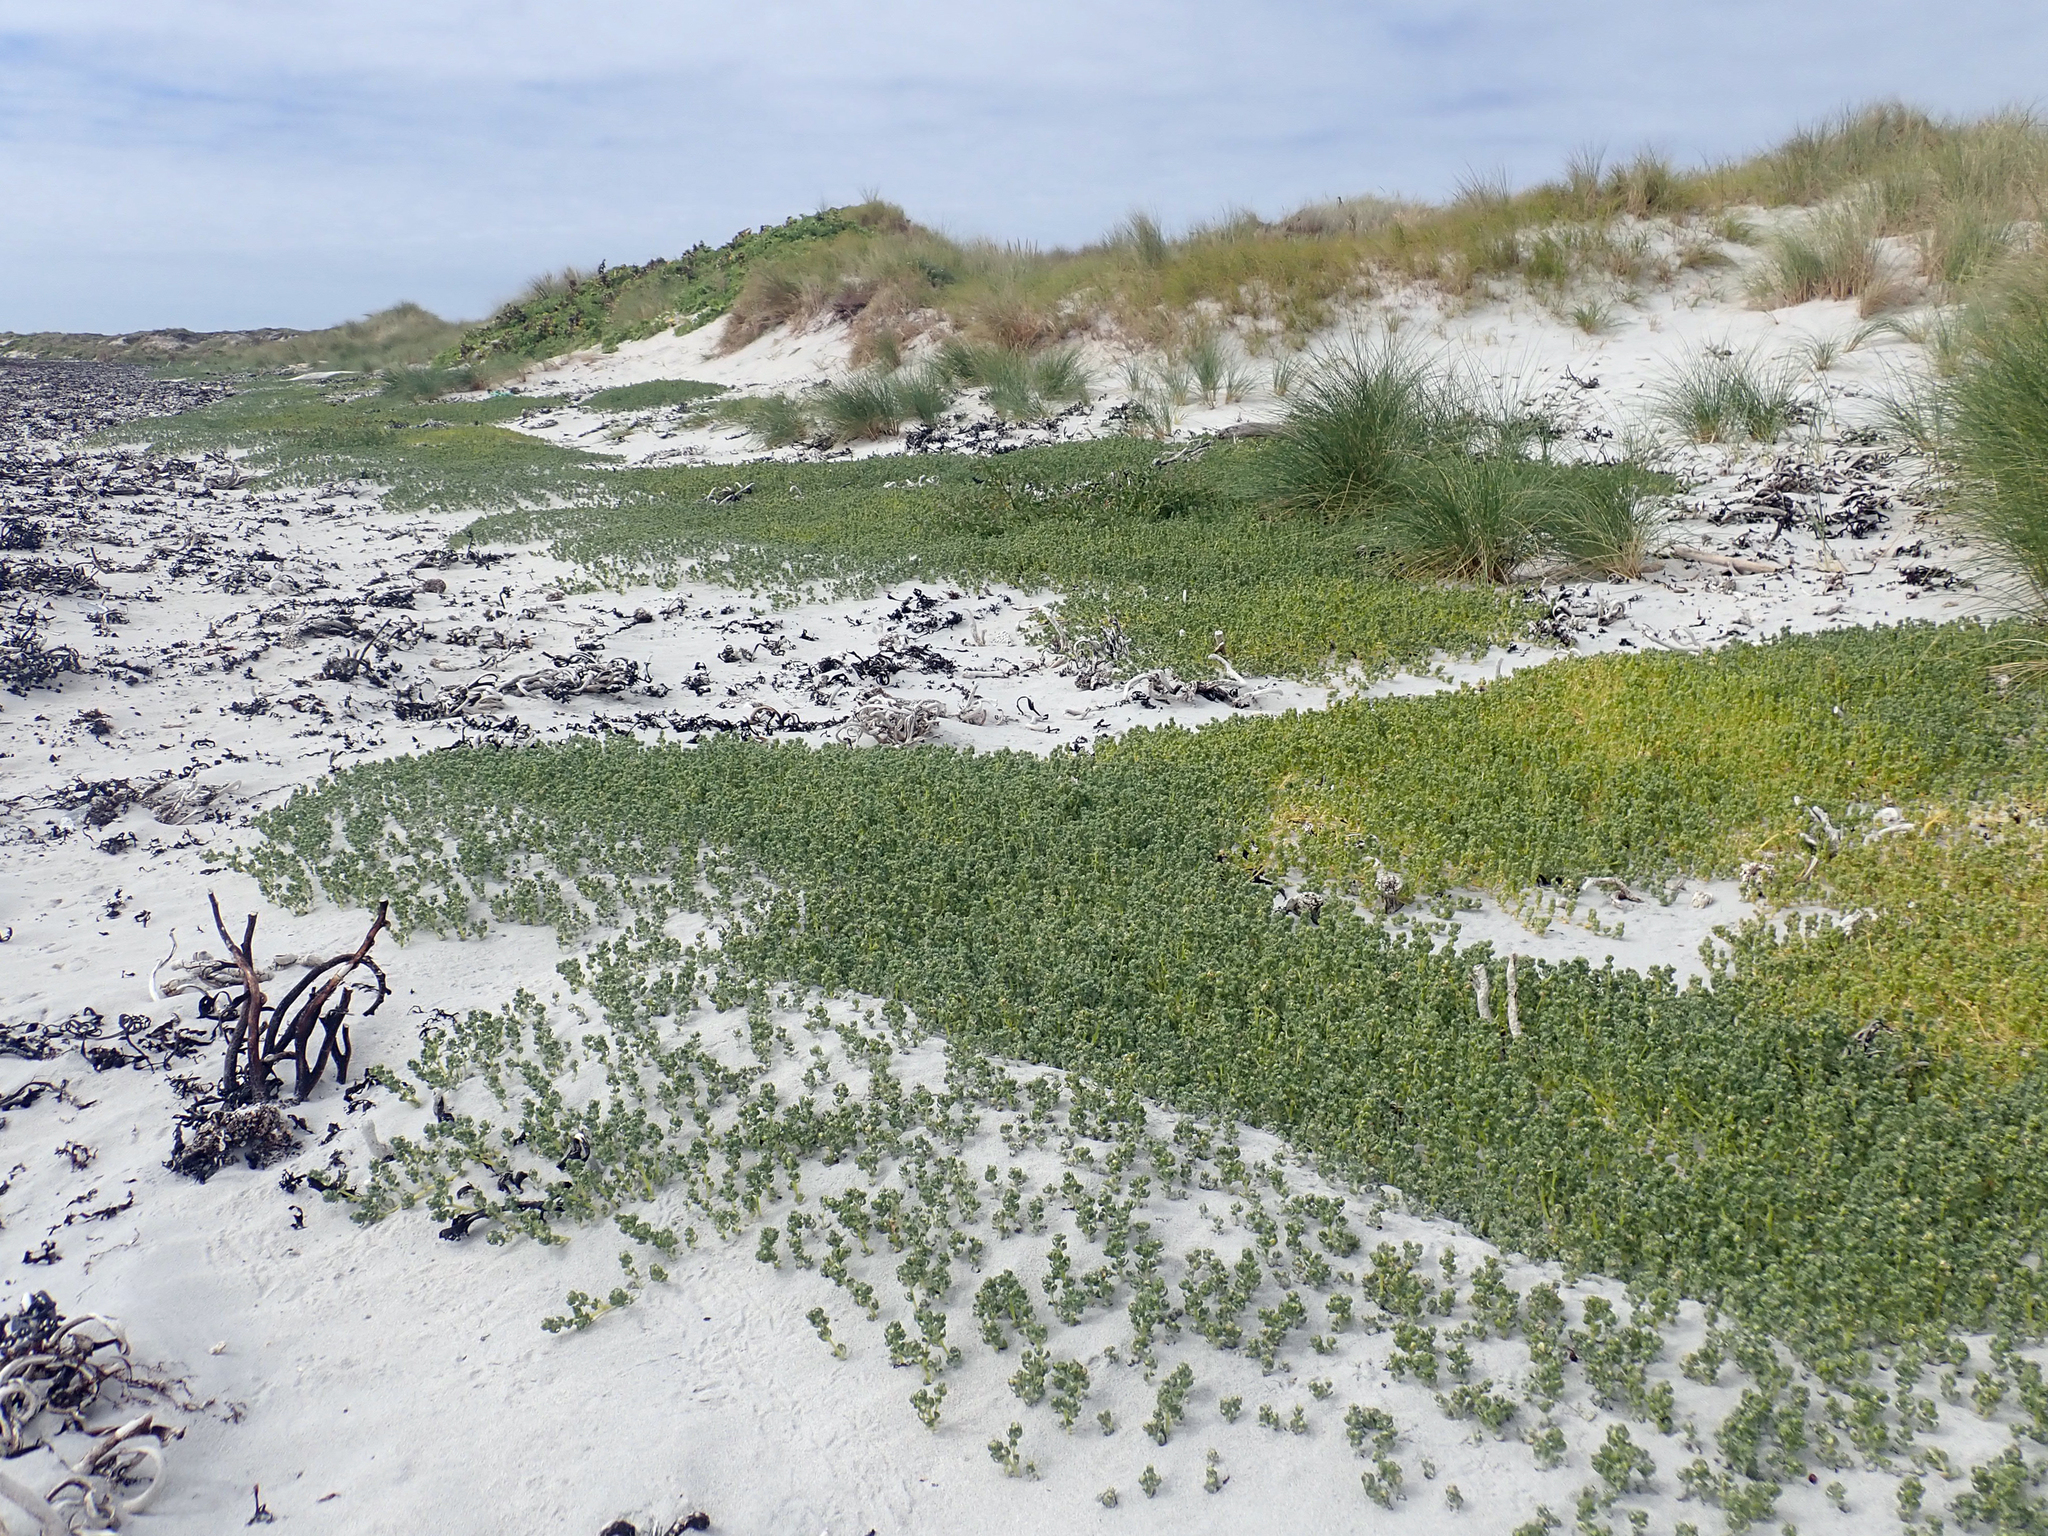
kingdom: Plantae
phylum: Tracheophyta
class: Magnoliopsida
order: Caryophyllales
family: Amaranthaceae
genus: Atriplex
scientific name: Atriplex billardierei
